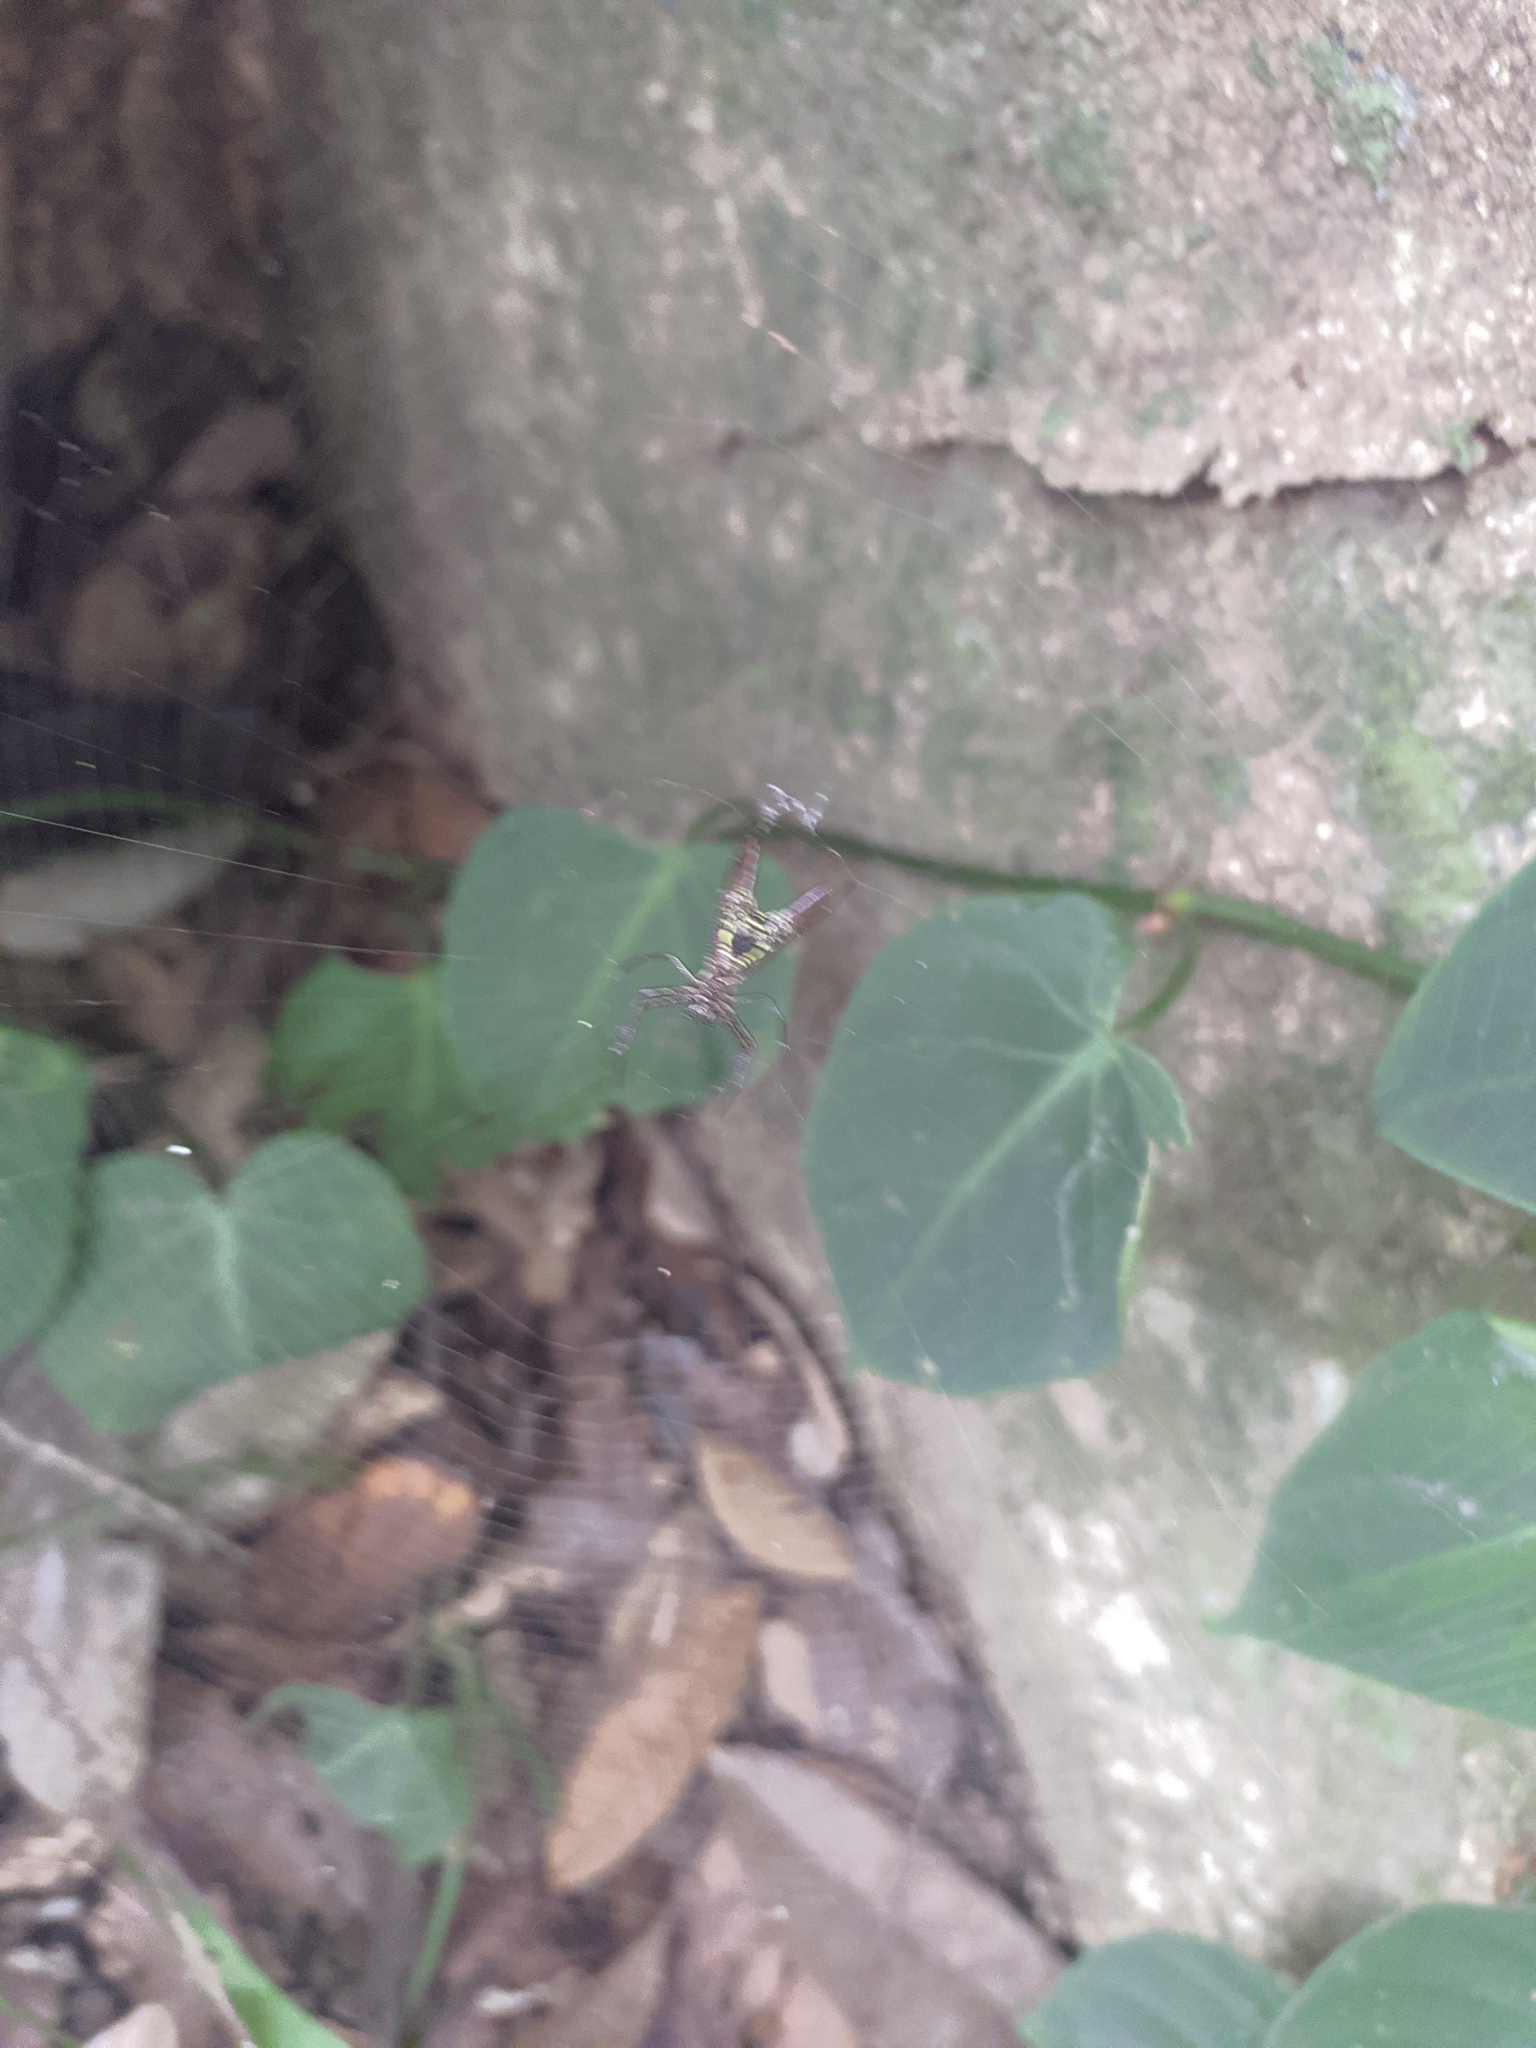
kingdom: Animalia
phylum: Arthropoda
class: Arachnida
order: Araneae
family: Araneidae
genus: Micrathena
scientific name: Micrathena sexspinosa
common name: Orb weavers
